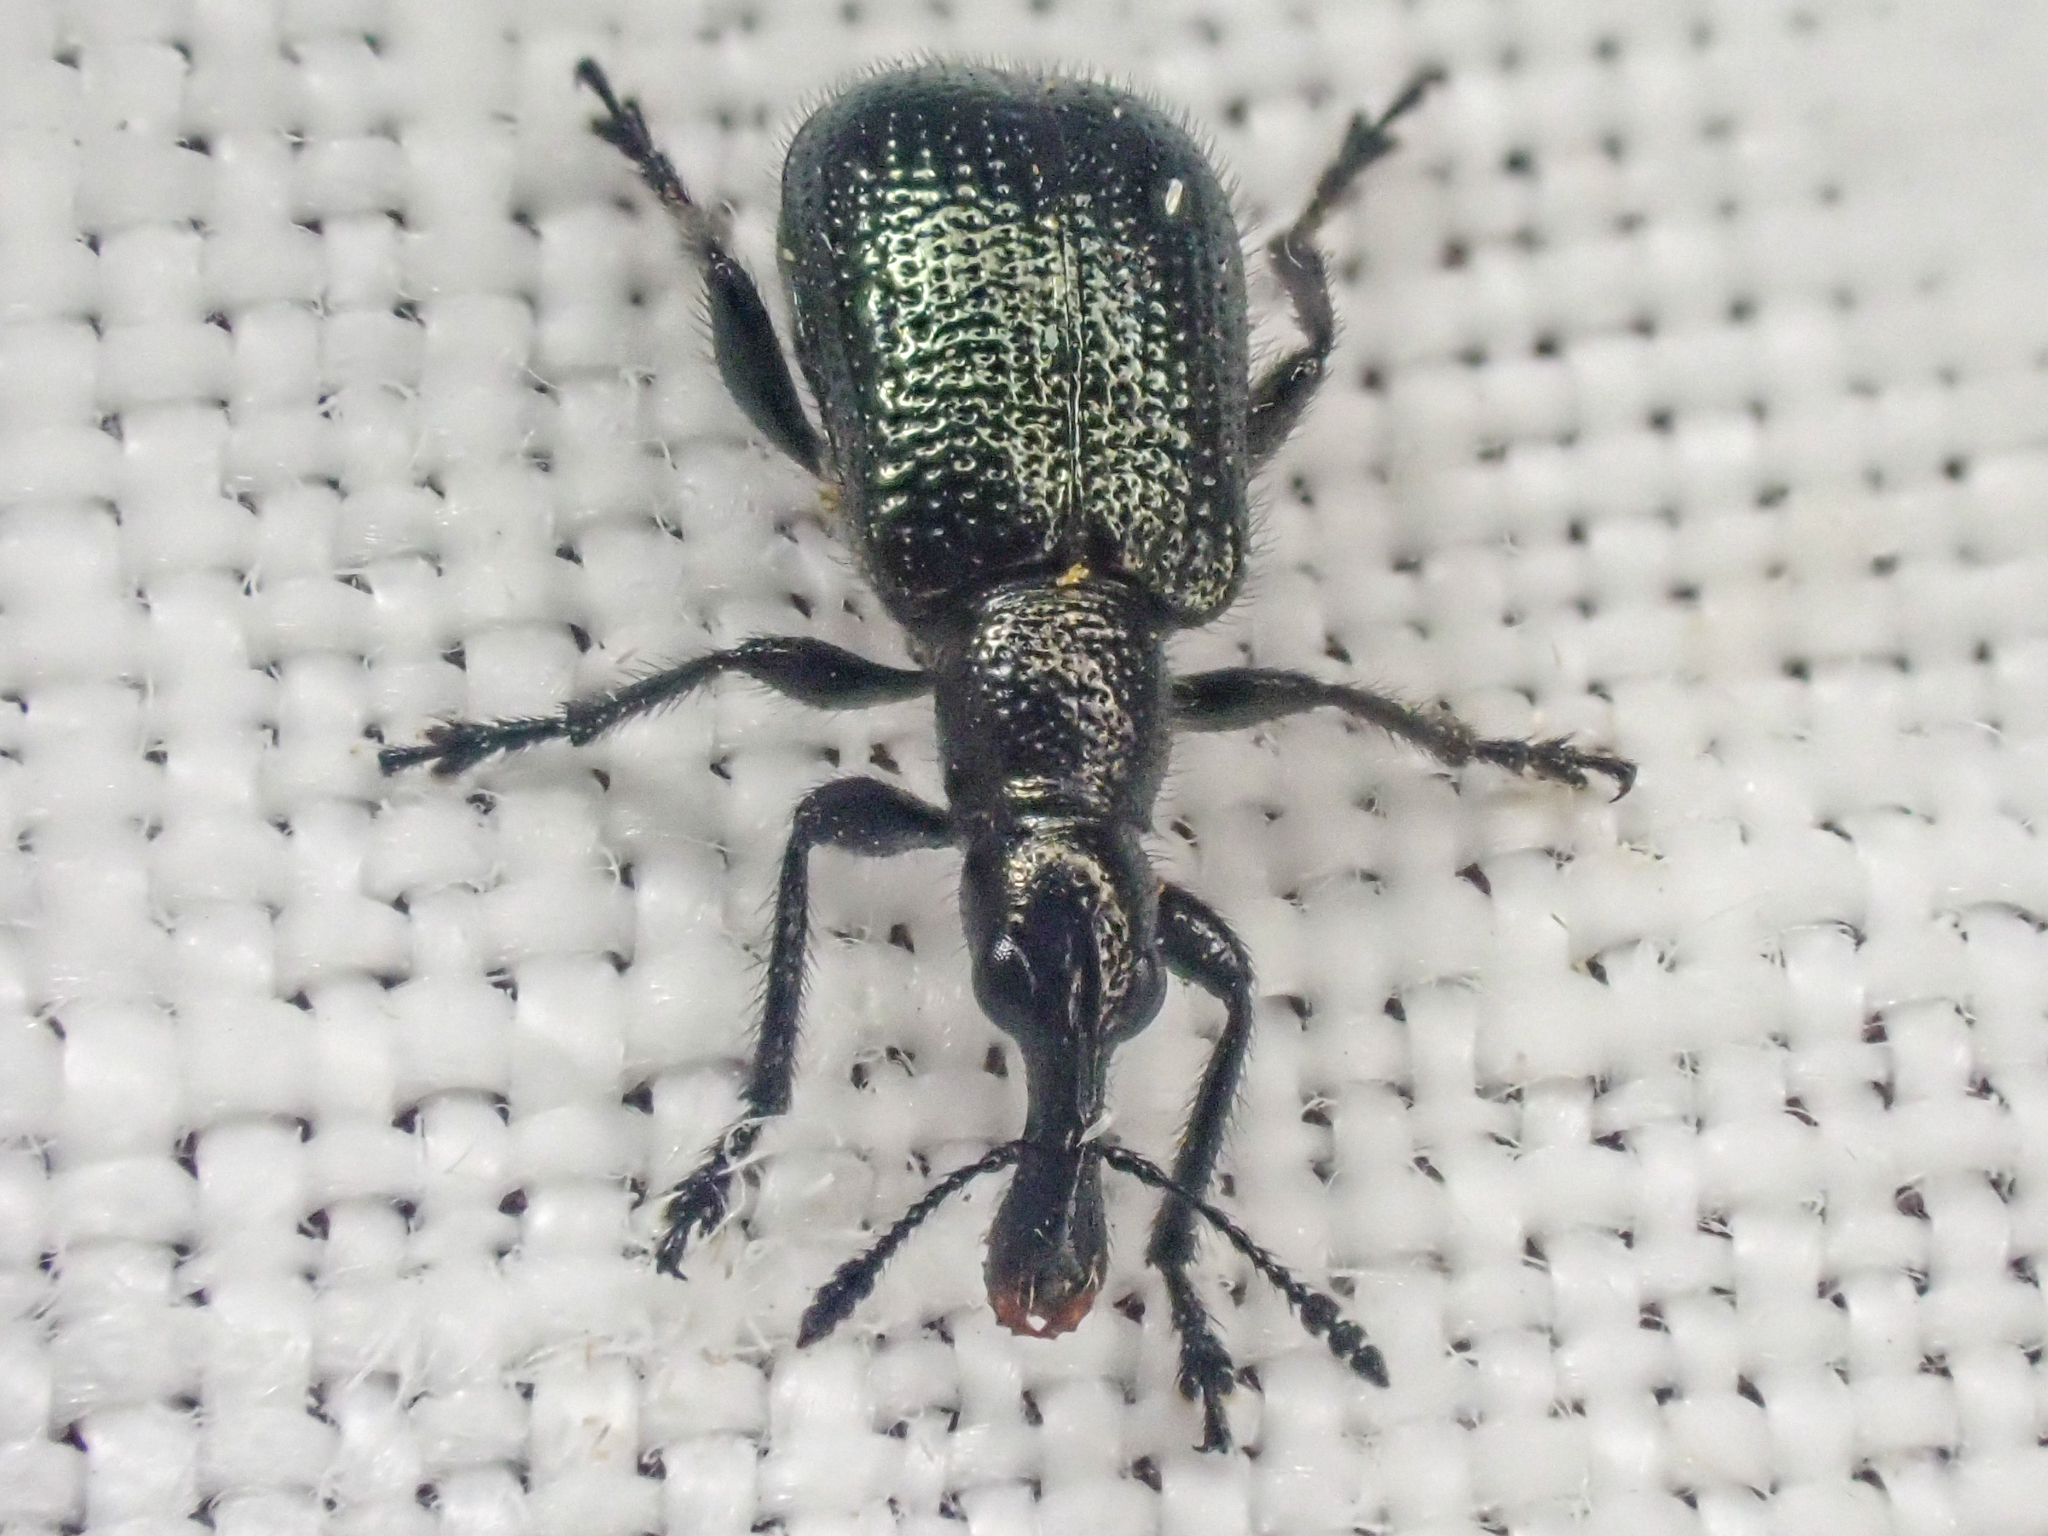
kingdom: Animalia
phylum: Arthropoda
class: Insecta
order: Coleoptera
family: Attelabidae
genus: Deporaus
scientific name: Deporaus glastinus
